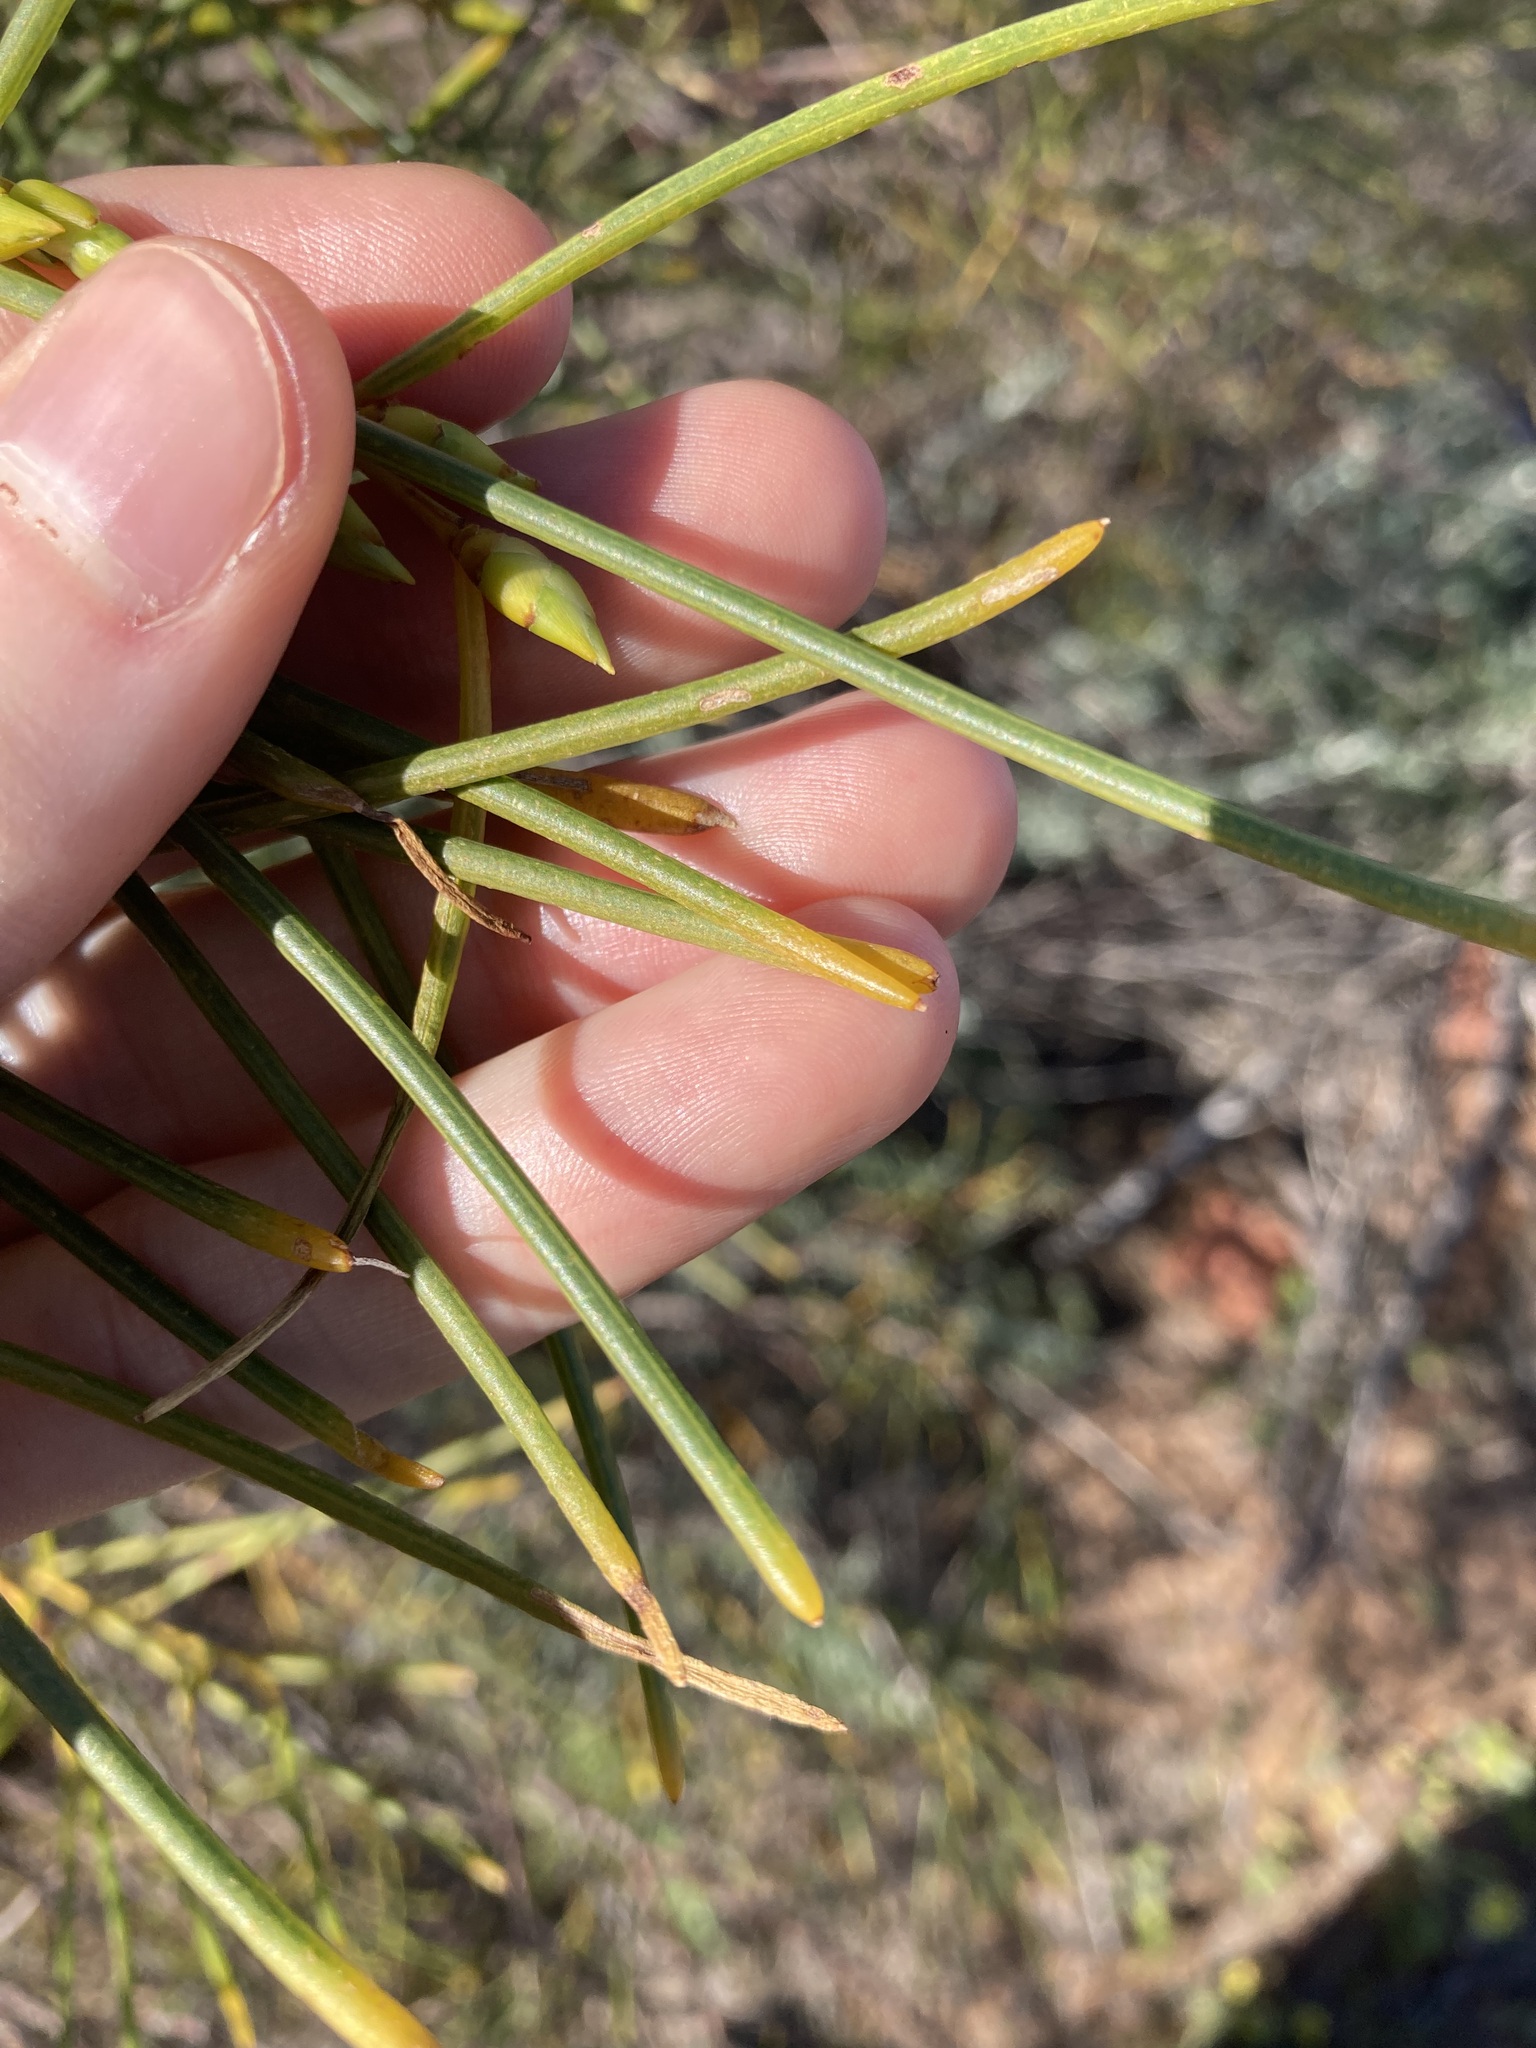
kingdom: Plantae
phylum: Tracheophyta
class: Magnoliopsida
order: Fabales
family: Fabaceae
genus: Acacia
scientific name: Acacia scirpifolia
